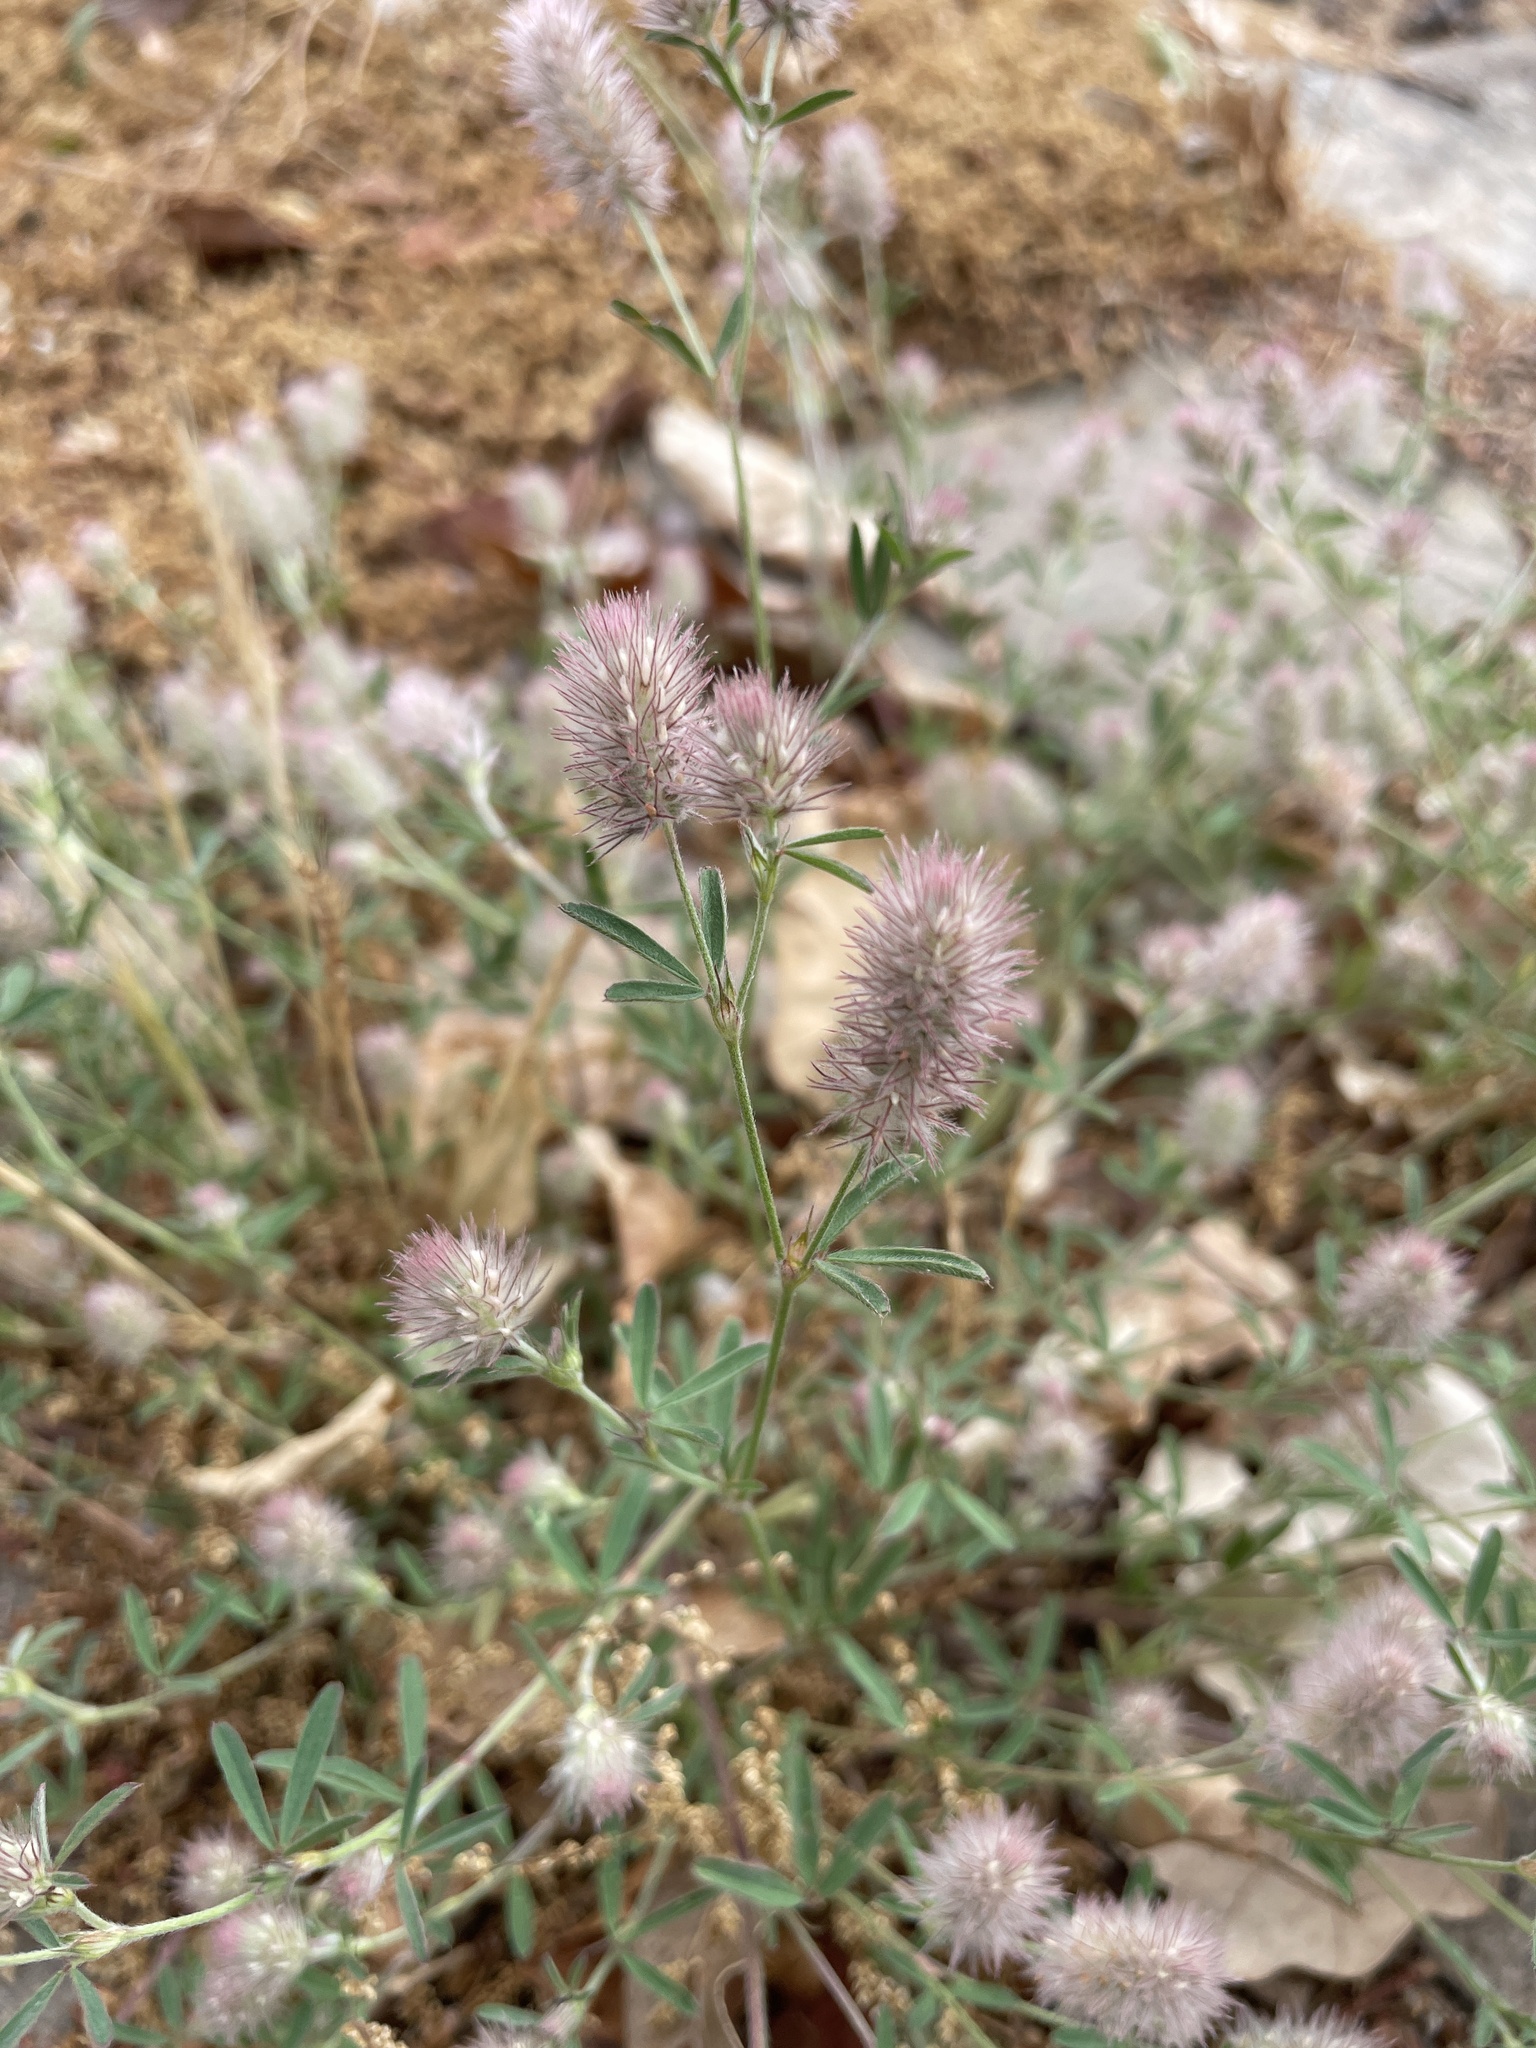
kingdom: Plantae
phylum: Tracheophyta
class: Magnoliopsida
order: Fabales
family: Fabaceae
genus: Trifolium
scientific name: Trifolium arvense
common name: Hare's-foot clover
